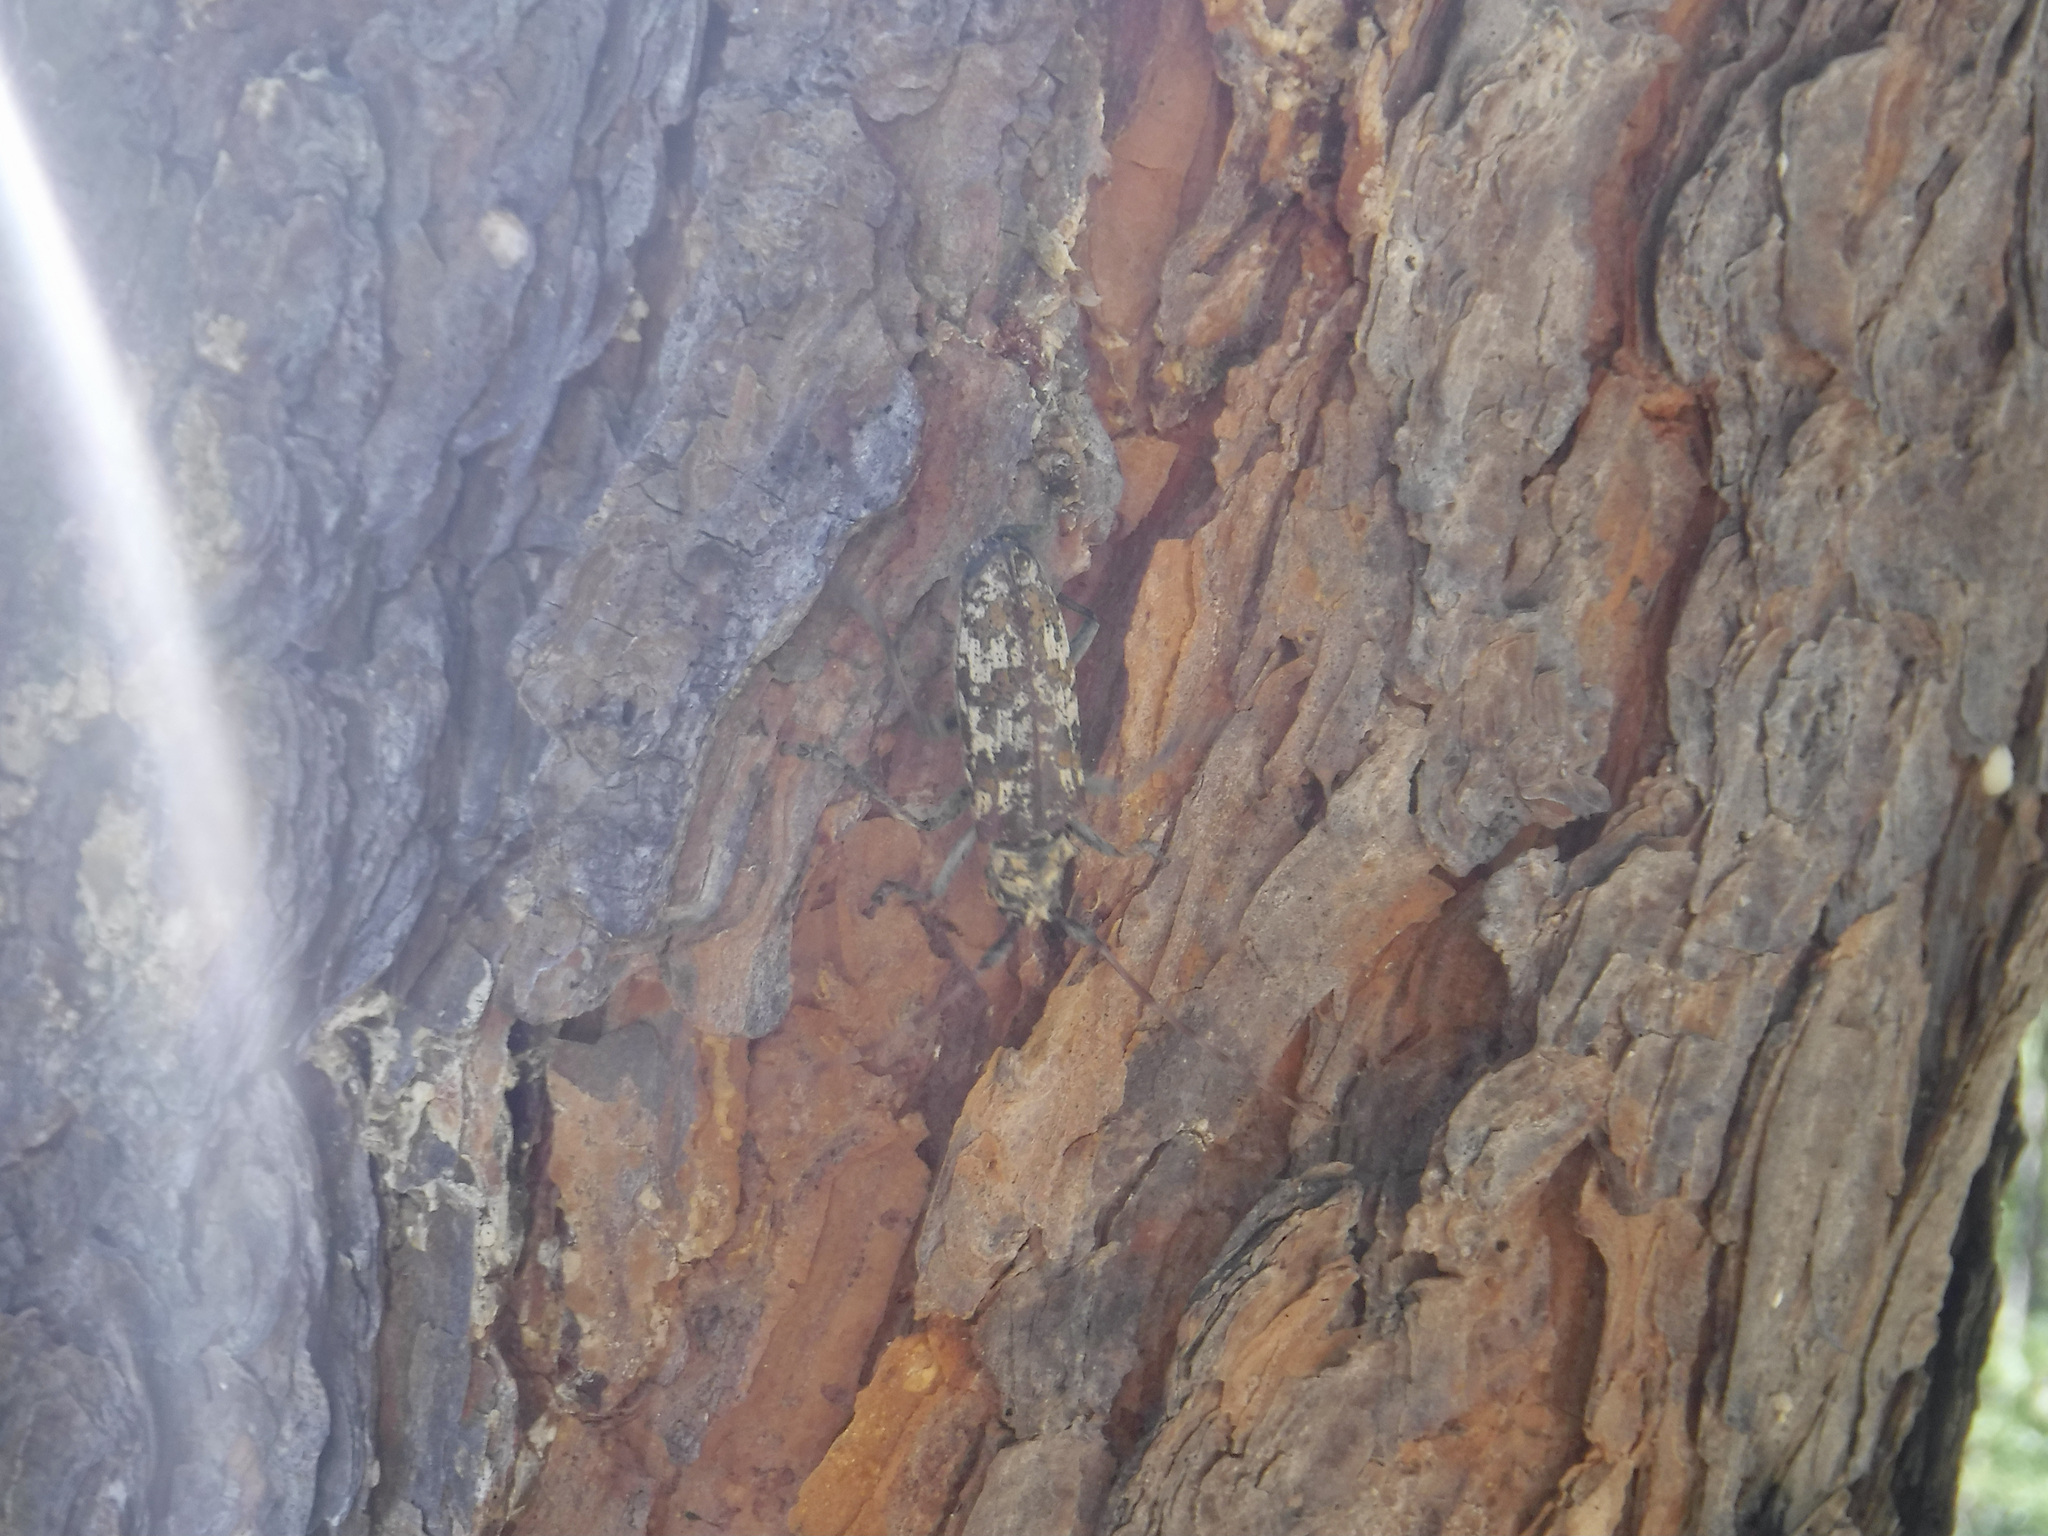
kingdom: Animalia
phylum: Arthropoda
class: Insecta
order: Coleoptera
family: Cerambycidae
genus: Monochamus
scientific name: Monochamus marmorator
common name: Balsam fir sawyer
